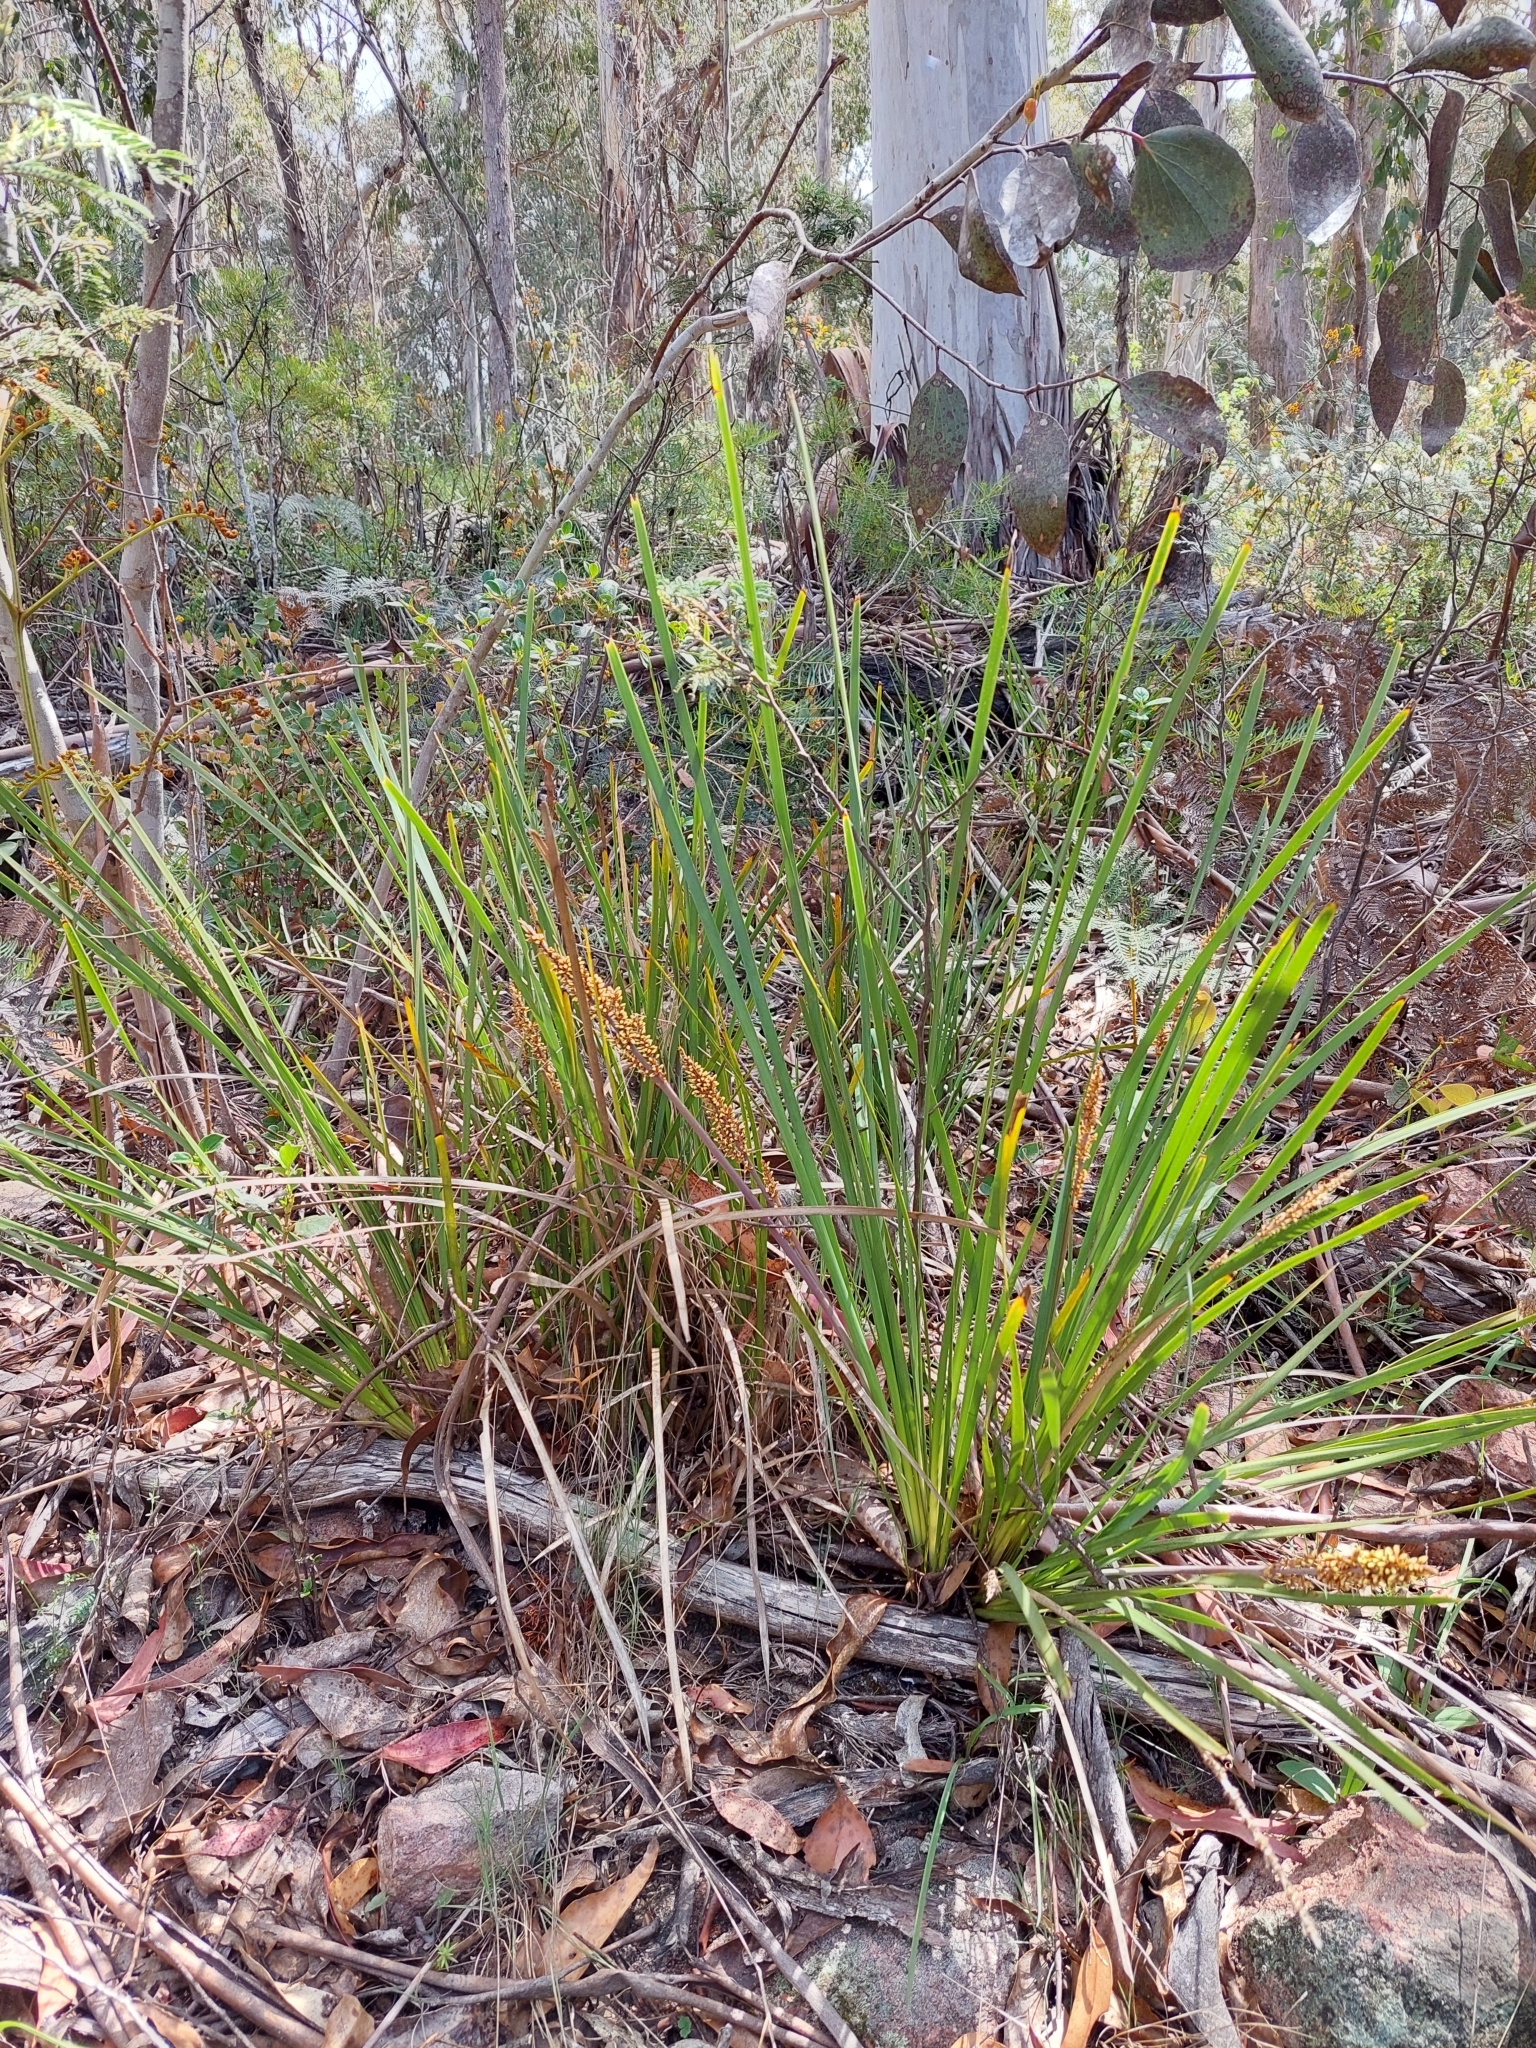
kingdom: Plantae
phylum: Tracheophyta
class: Liliopsida
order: Asparagales
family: Asparagaceae
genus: Lomandra
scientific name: Lomandra longifolia
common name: Longleaf mat-rush
